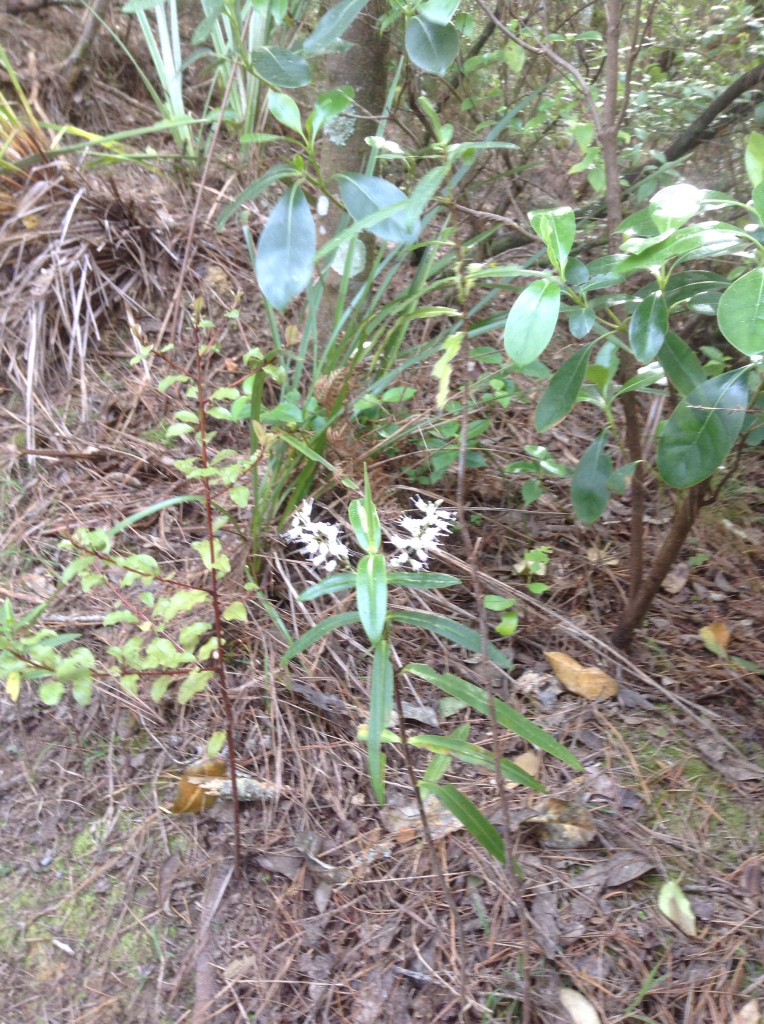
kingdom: Plantae
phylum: Tracheophyta
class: Magnoliopsida
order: Lamiales
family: Plantaginaceae
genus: Veronica
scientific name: Veronica macrocarpa
